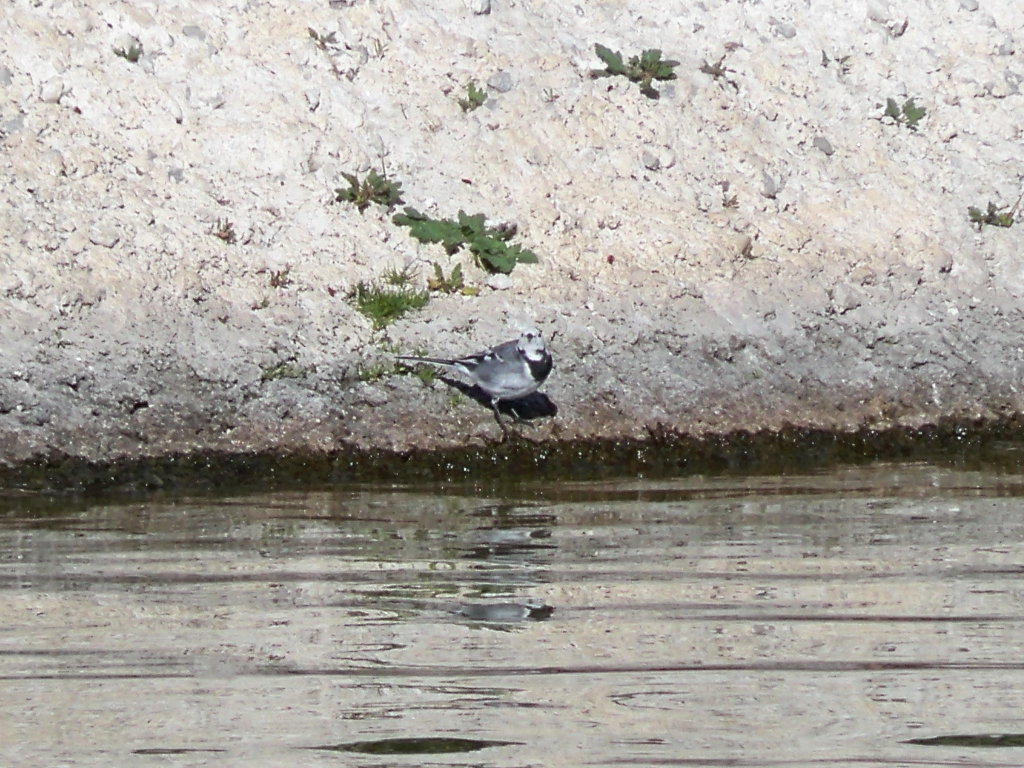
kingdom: Animalia
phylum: Chordata
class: Aves
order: Passeriformes
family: Motacillidae
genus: Motacilla
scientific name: Motacilla alba
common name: White wagtail
